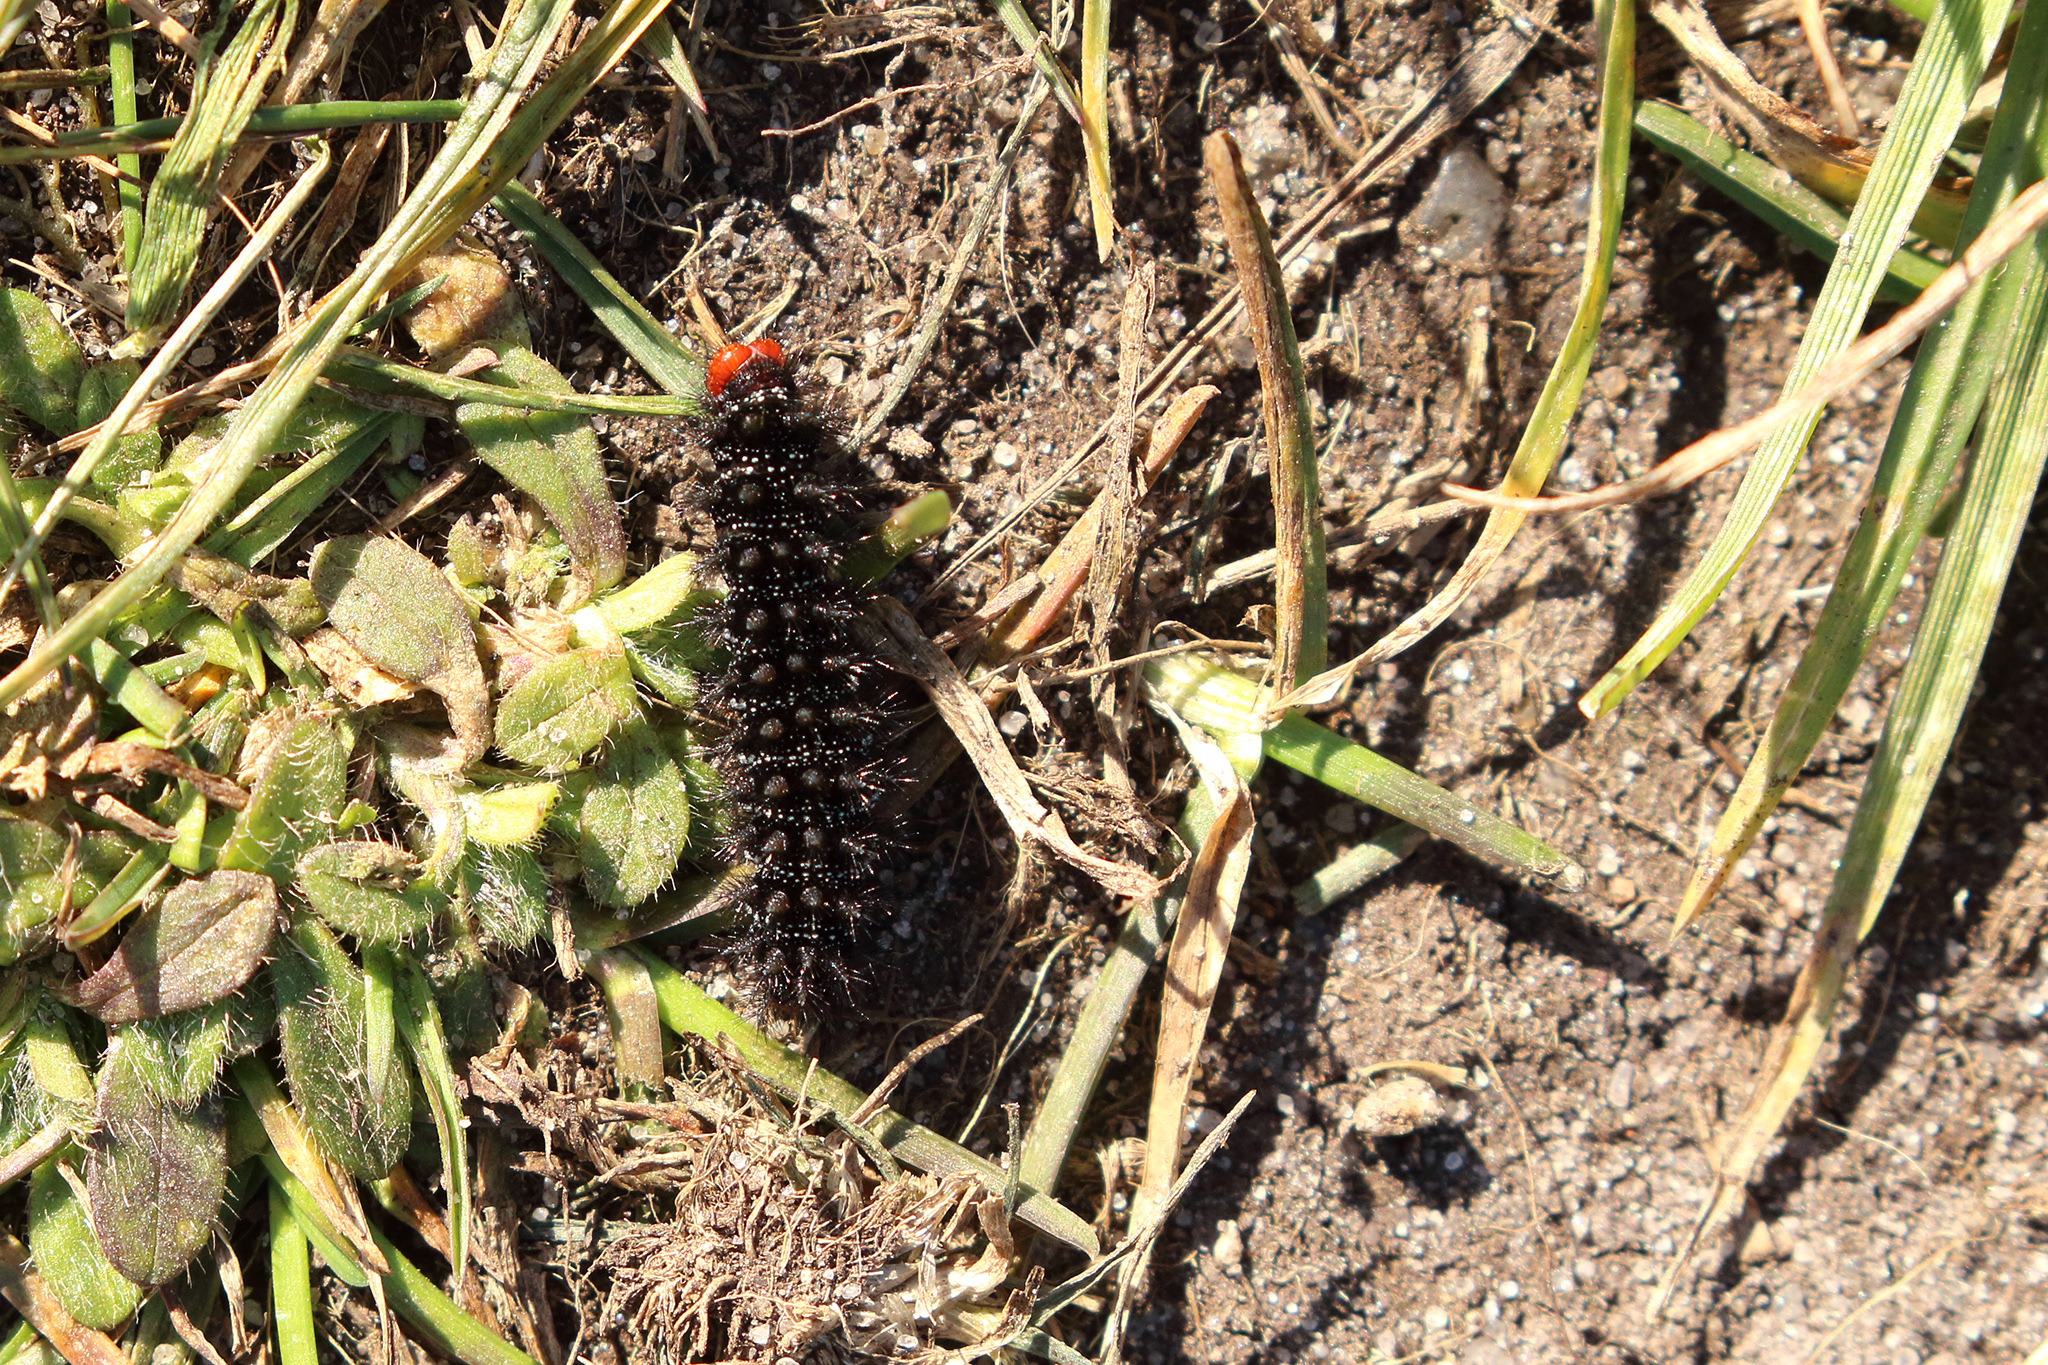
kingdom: Animalia
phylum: Arthropoda
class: Insecta
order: Lepidoptera
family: Nymphalidae
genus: Melitaea
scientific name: Melitaea cinxia
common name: Glanville fritillary
